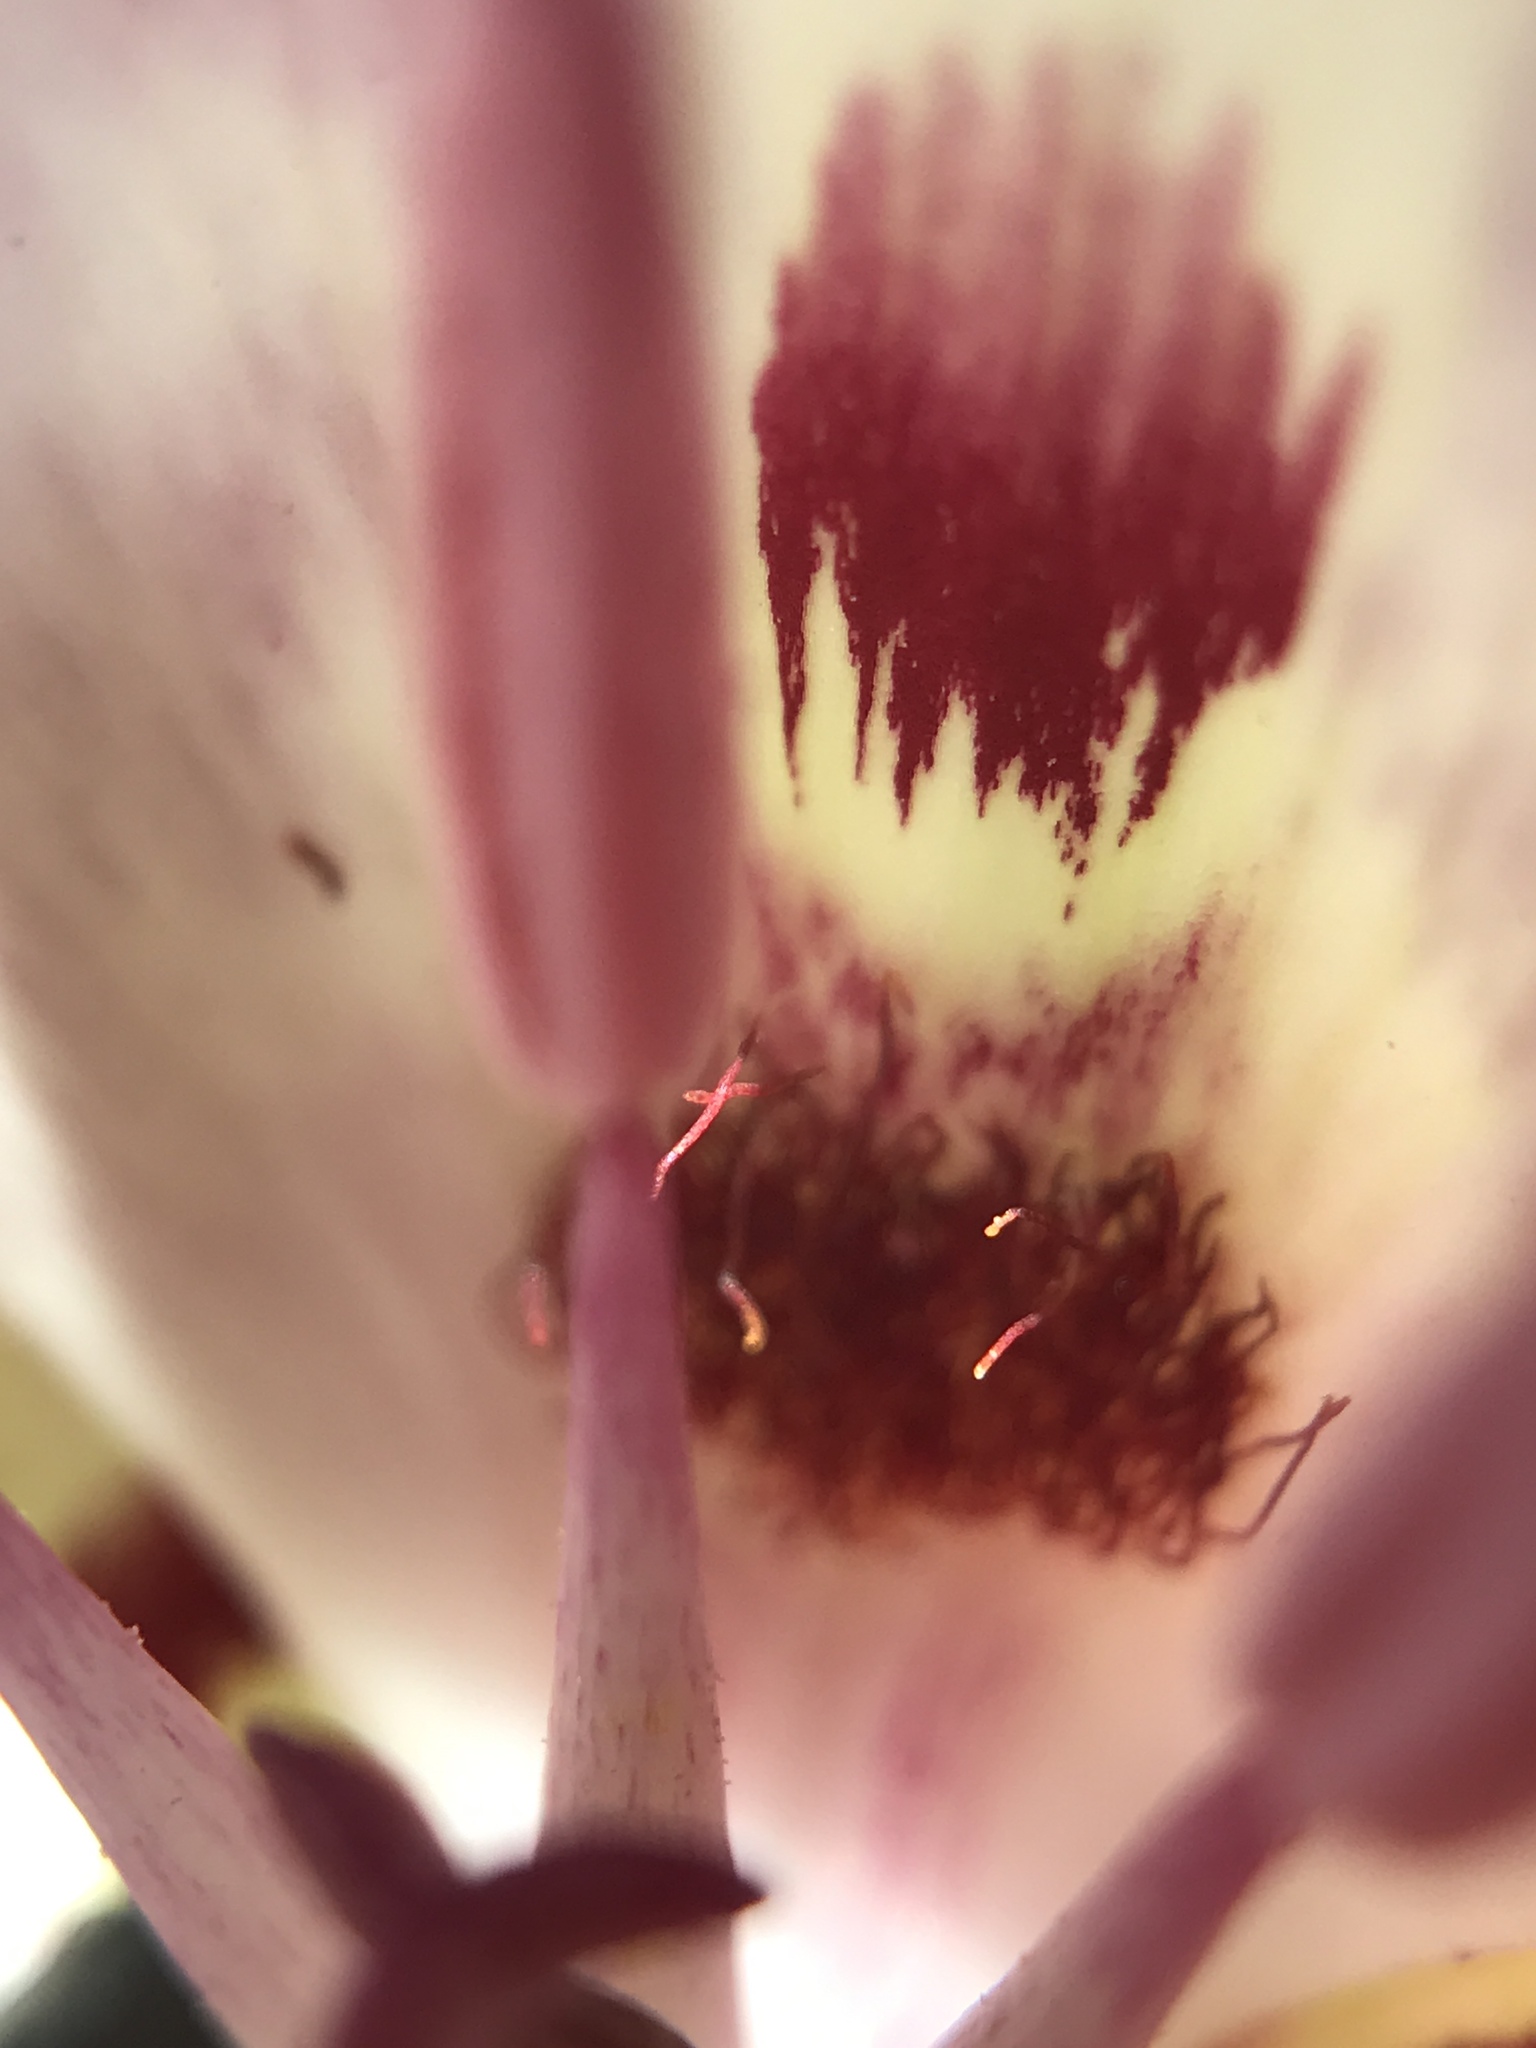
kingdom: Plantae
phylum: Tracheophyta
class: Liliopsida
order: Liliales
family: Liliaceae
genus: Calochortus
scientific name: Calochortus argillosus
